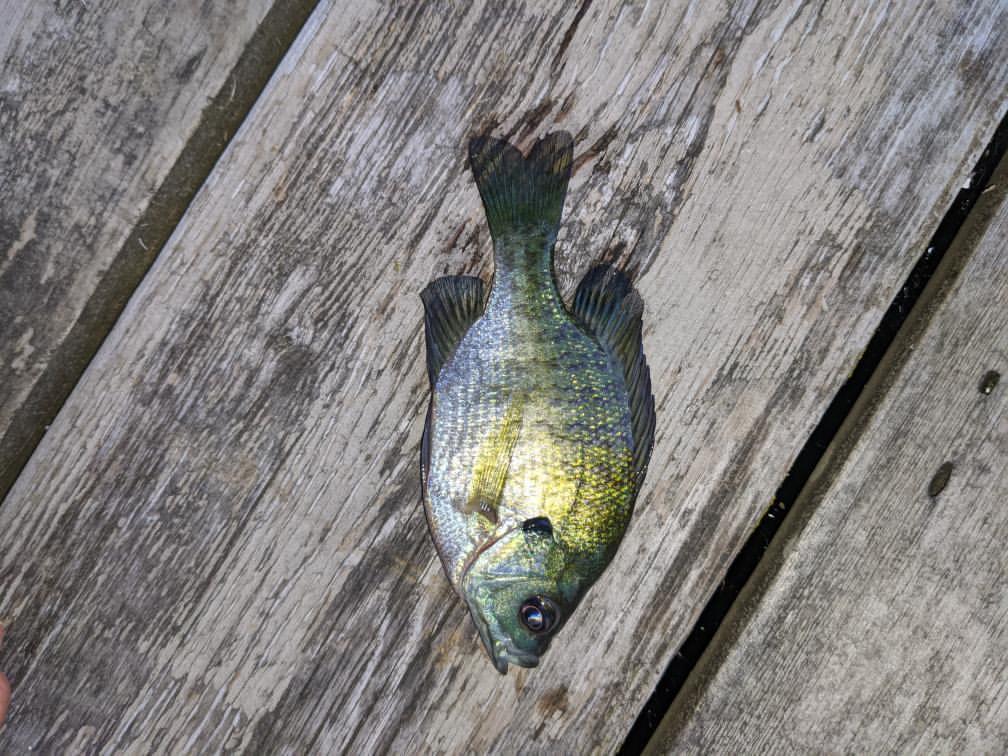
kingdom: Animalia
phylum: Chordata
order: Perciformes
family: Centrarchidae
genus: Lepomis
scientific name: Lepomis macrochirus
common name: Bluegill
